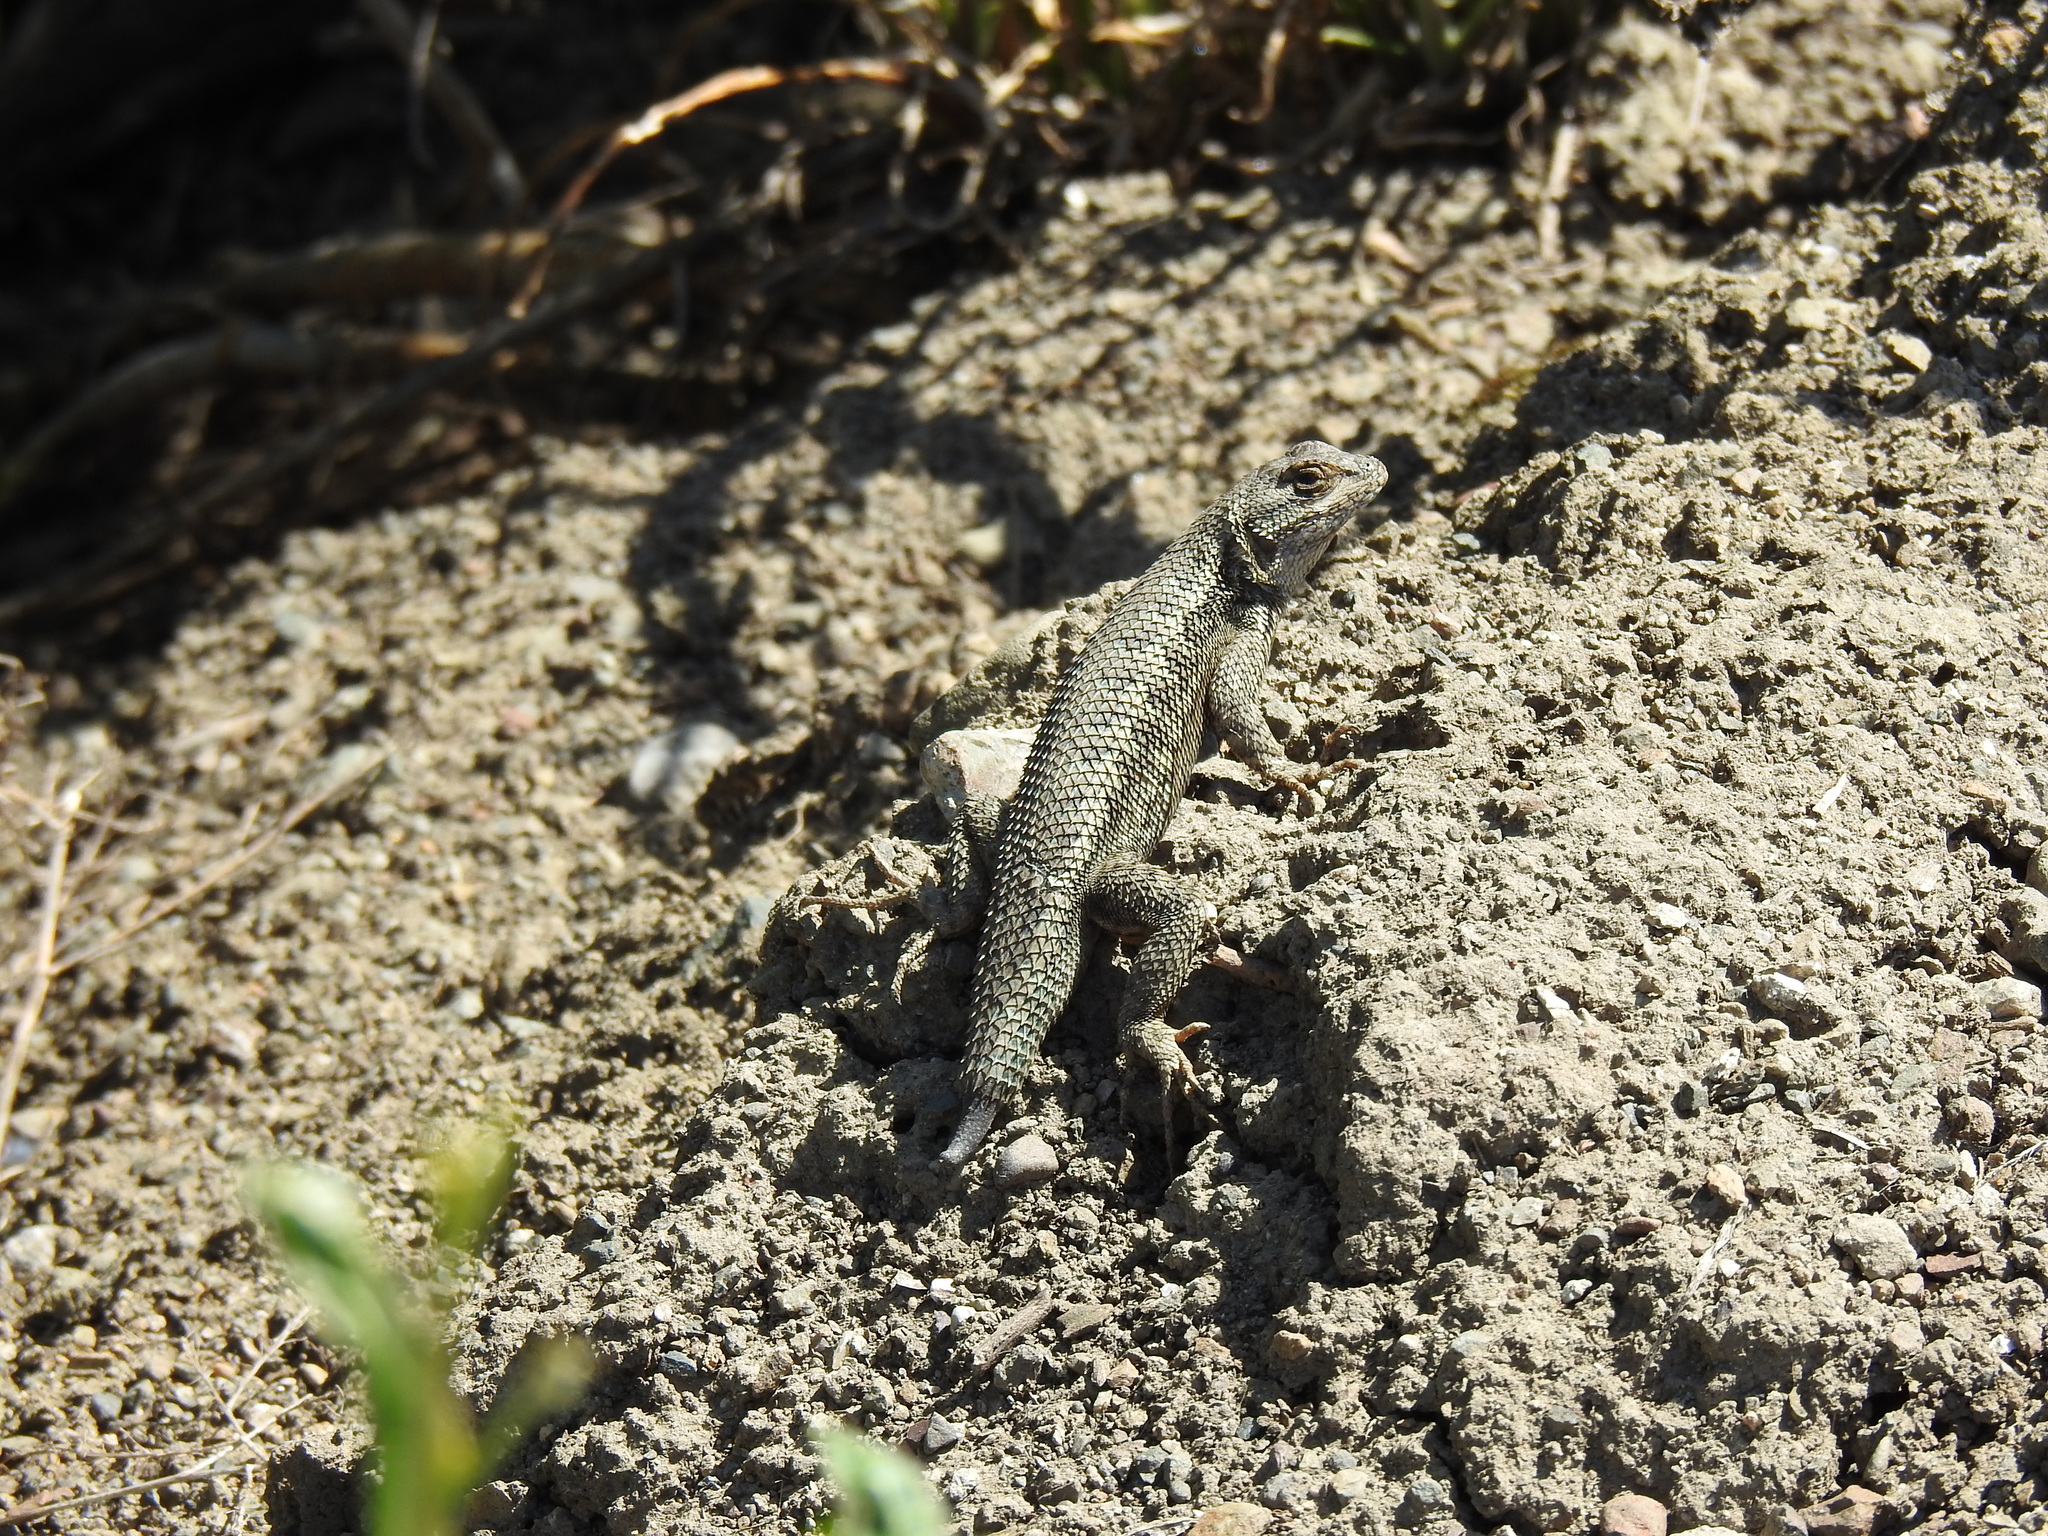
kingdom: Animalia
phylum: Chordata
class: Squamata
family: Phrynosomatidae
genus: Sceloporus
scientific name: Sceloporus occidentalis
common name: Western fence lizard
